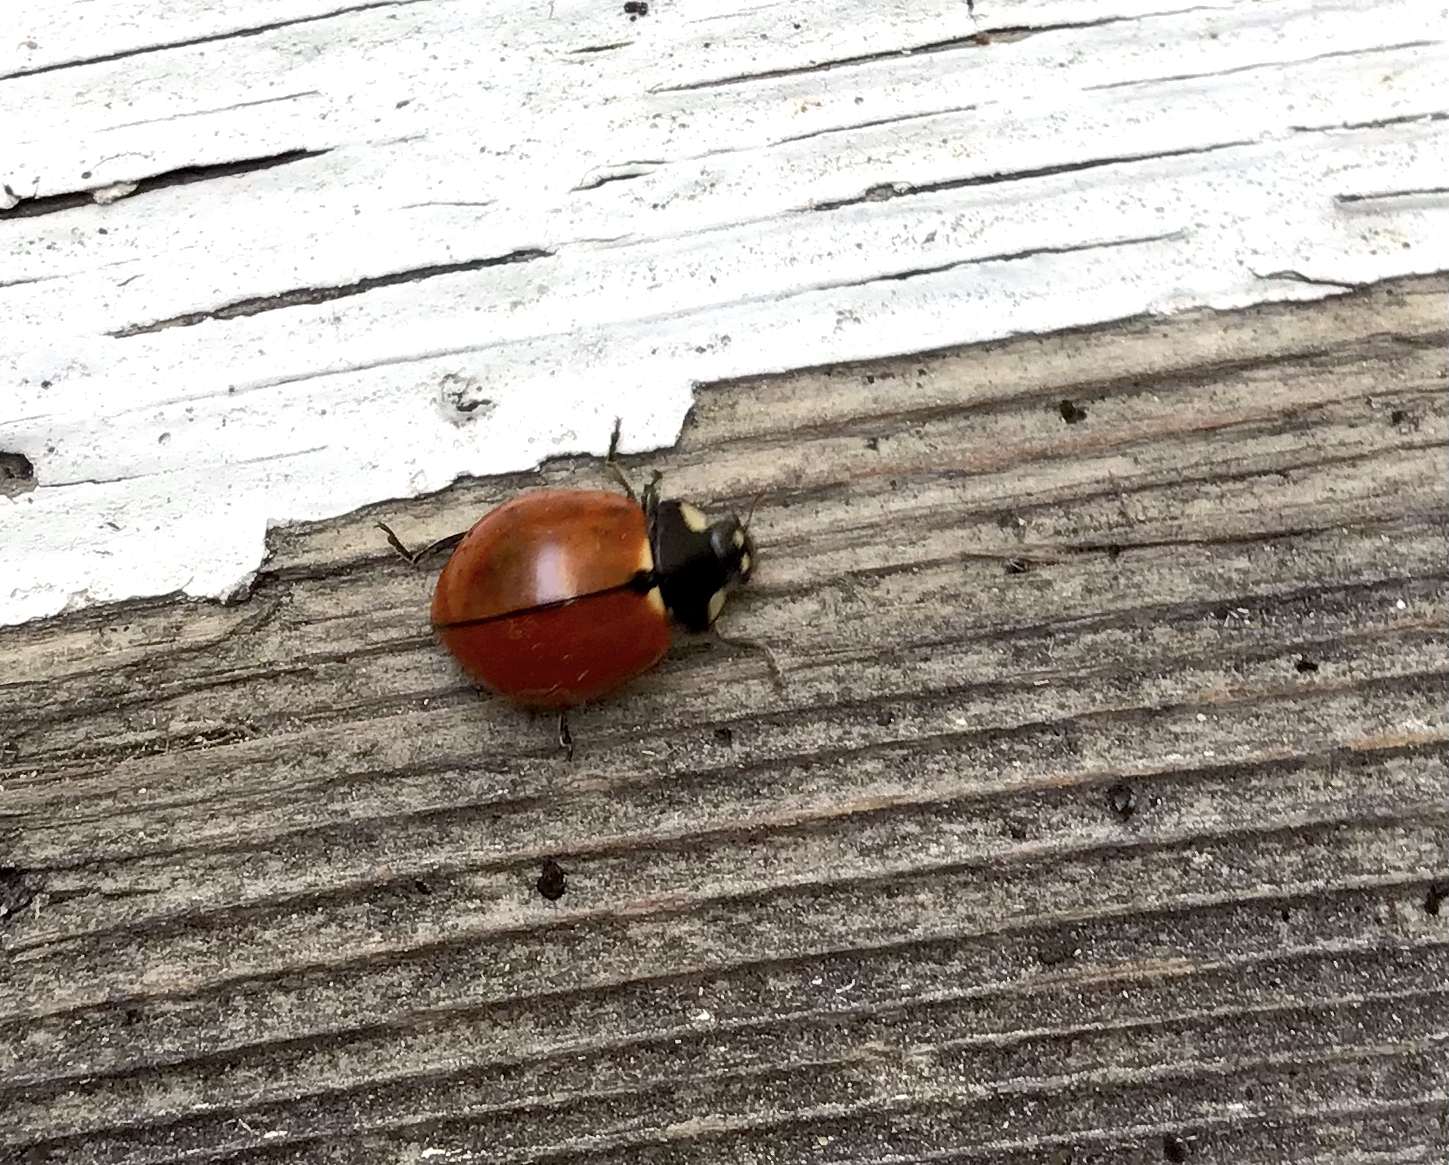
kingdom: Animalia
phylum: Arthropoda
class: Insecta
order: Coleoptera
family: Coccinellidae
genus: Coccinella
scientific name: Coccinella californica
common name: Lady beetle
